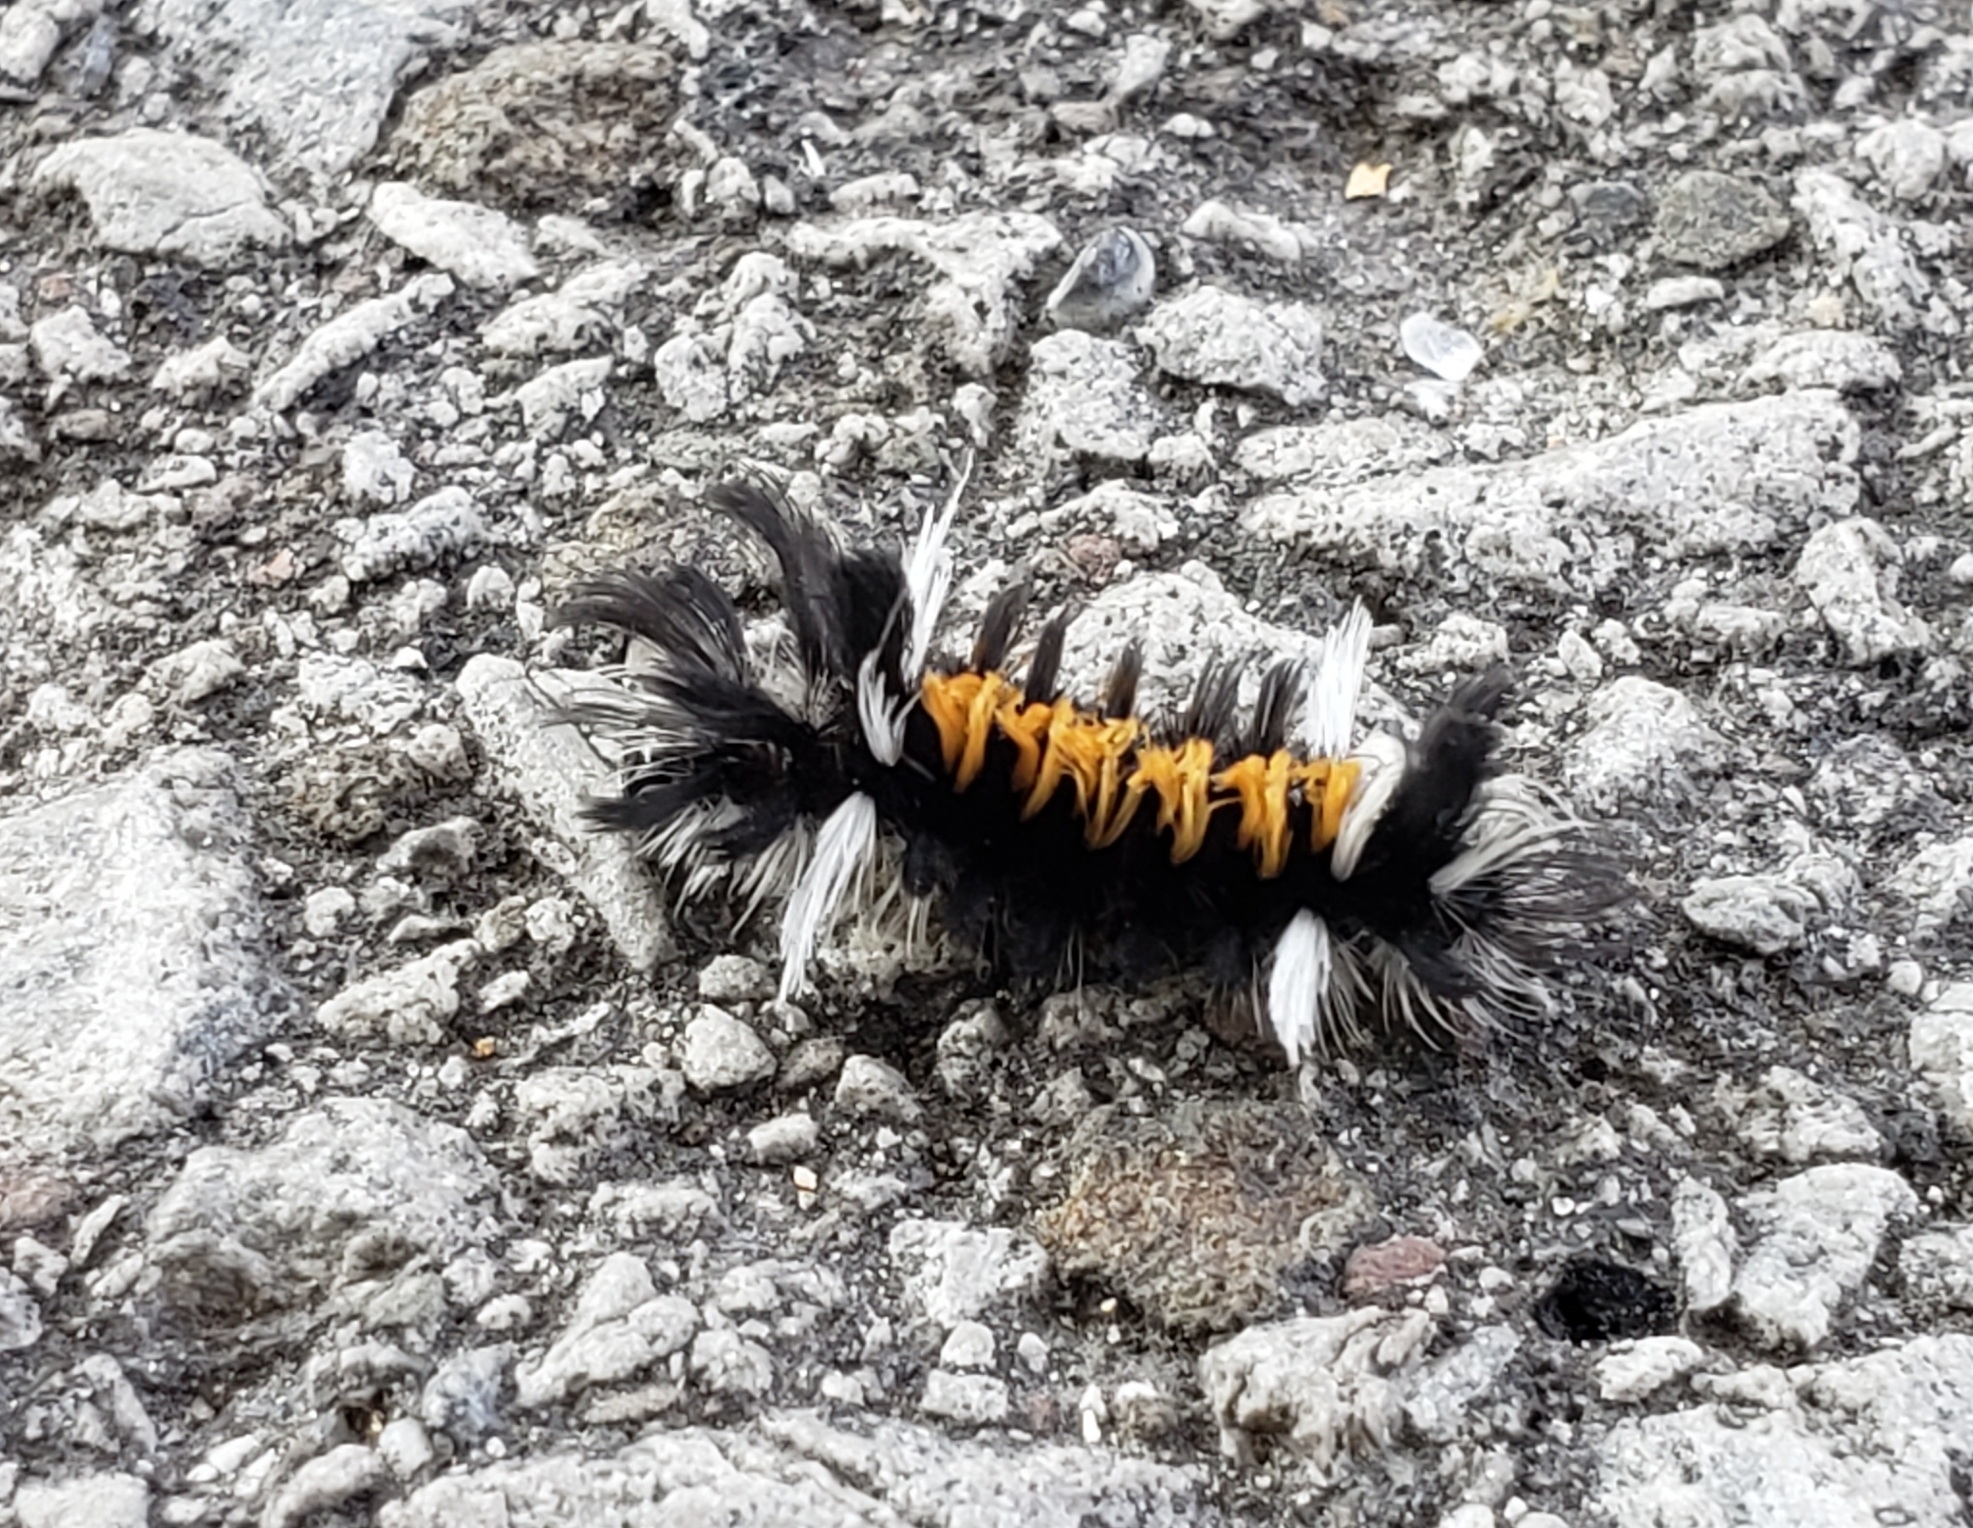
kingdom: Animalia
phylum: Arthropoda
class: Insecta
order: Lepidoptera
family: Erebidae
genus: Euchaetes
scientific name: Euchaetes egle
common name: Milkweed tussock moth
